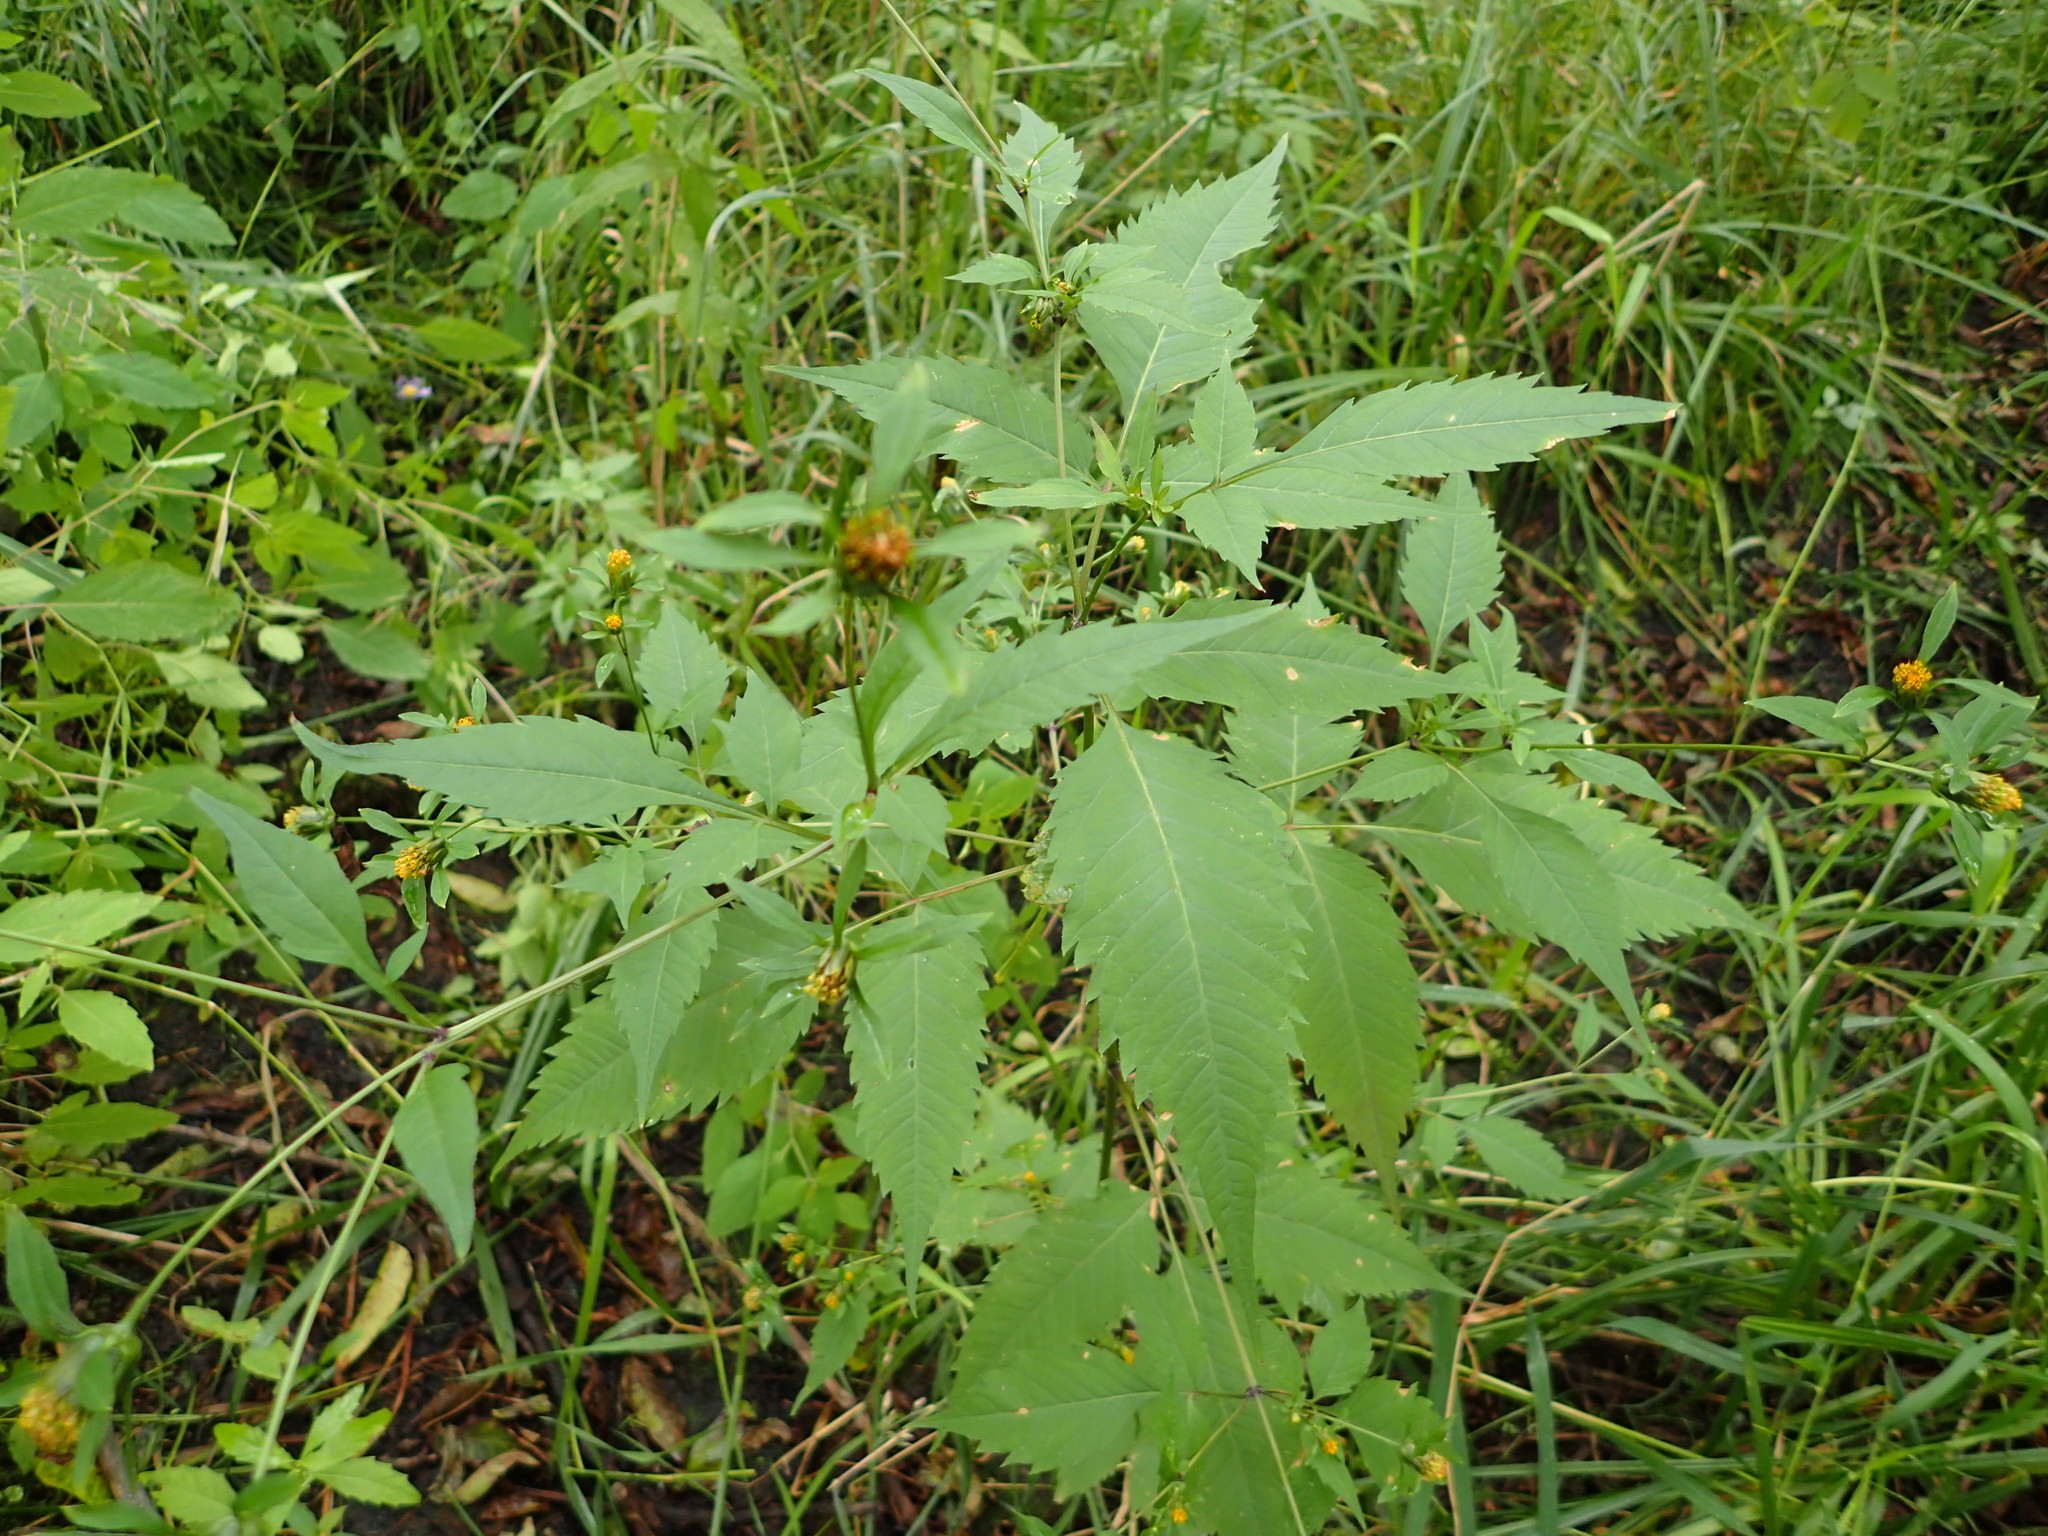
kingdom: Plantae
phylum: Tracheophyta
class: Magnoliopsida
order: Asterales
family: Asteraceae
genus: Bidens
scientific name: Bidens frondosa
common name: Beggarticks
